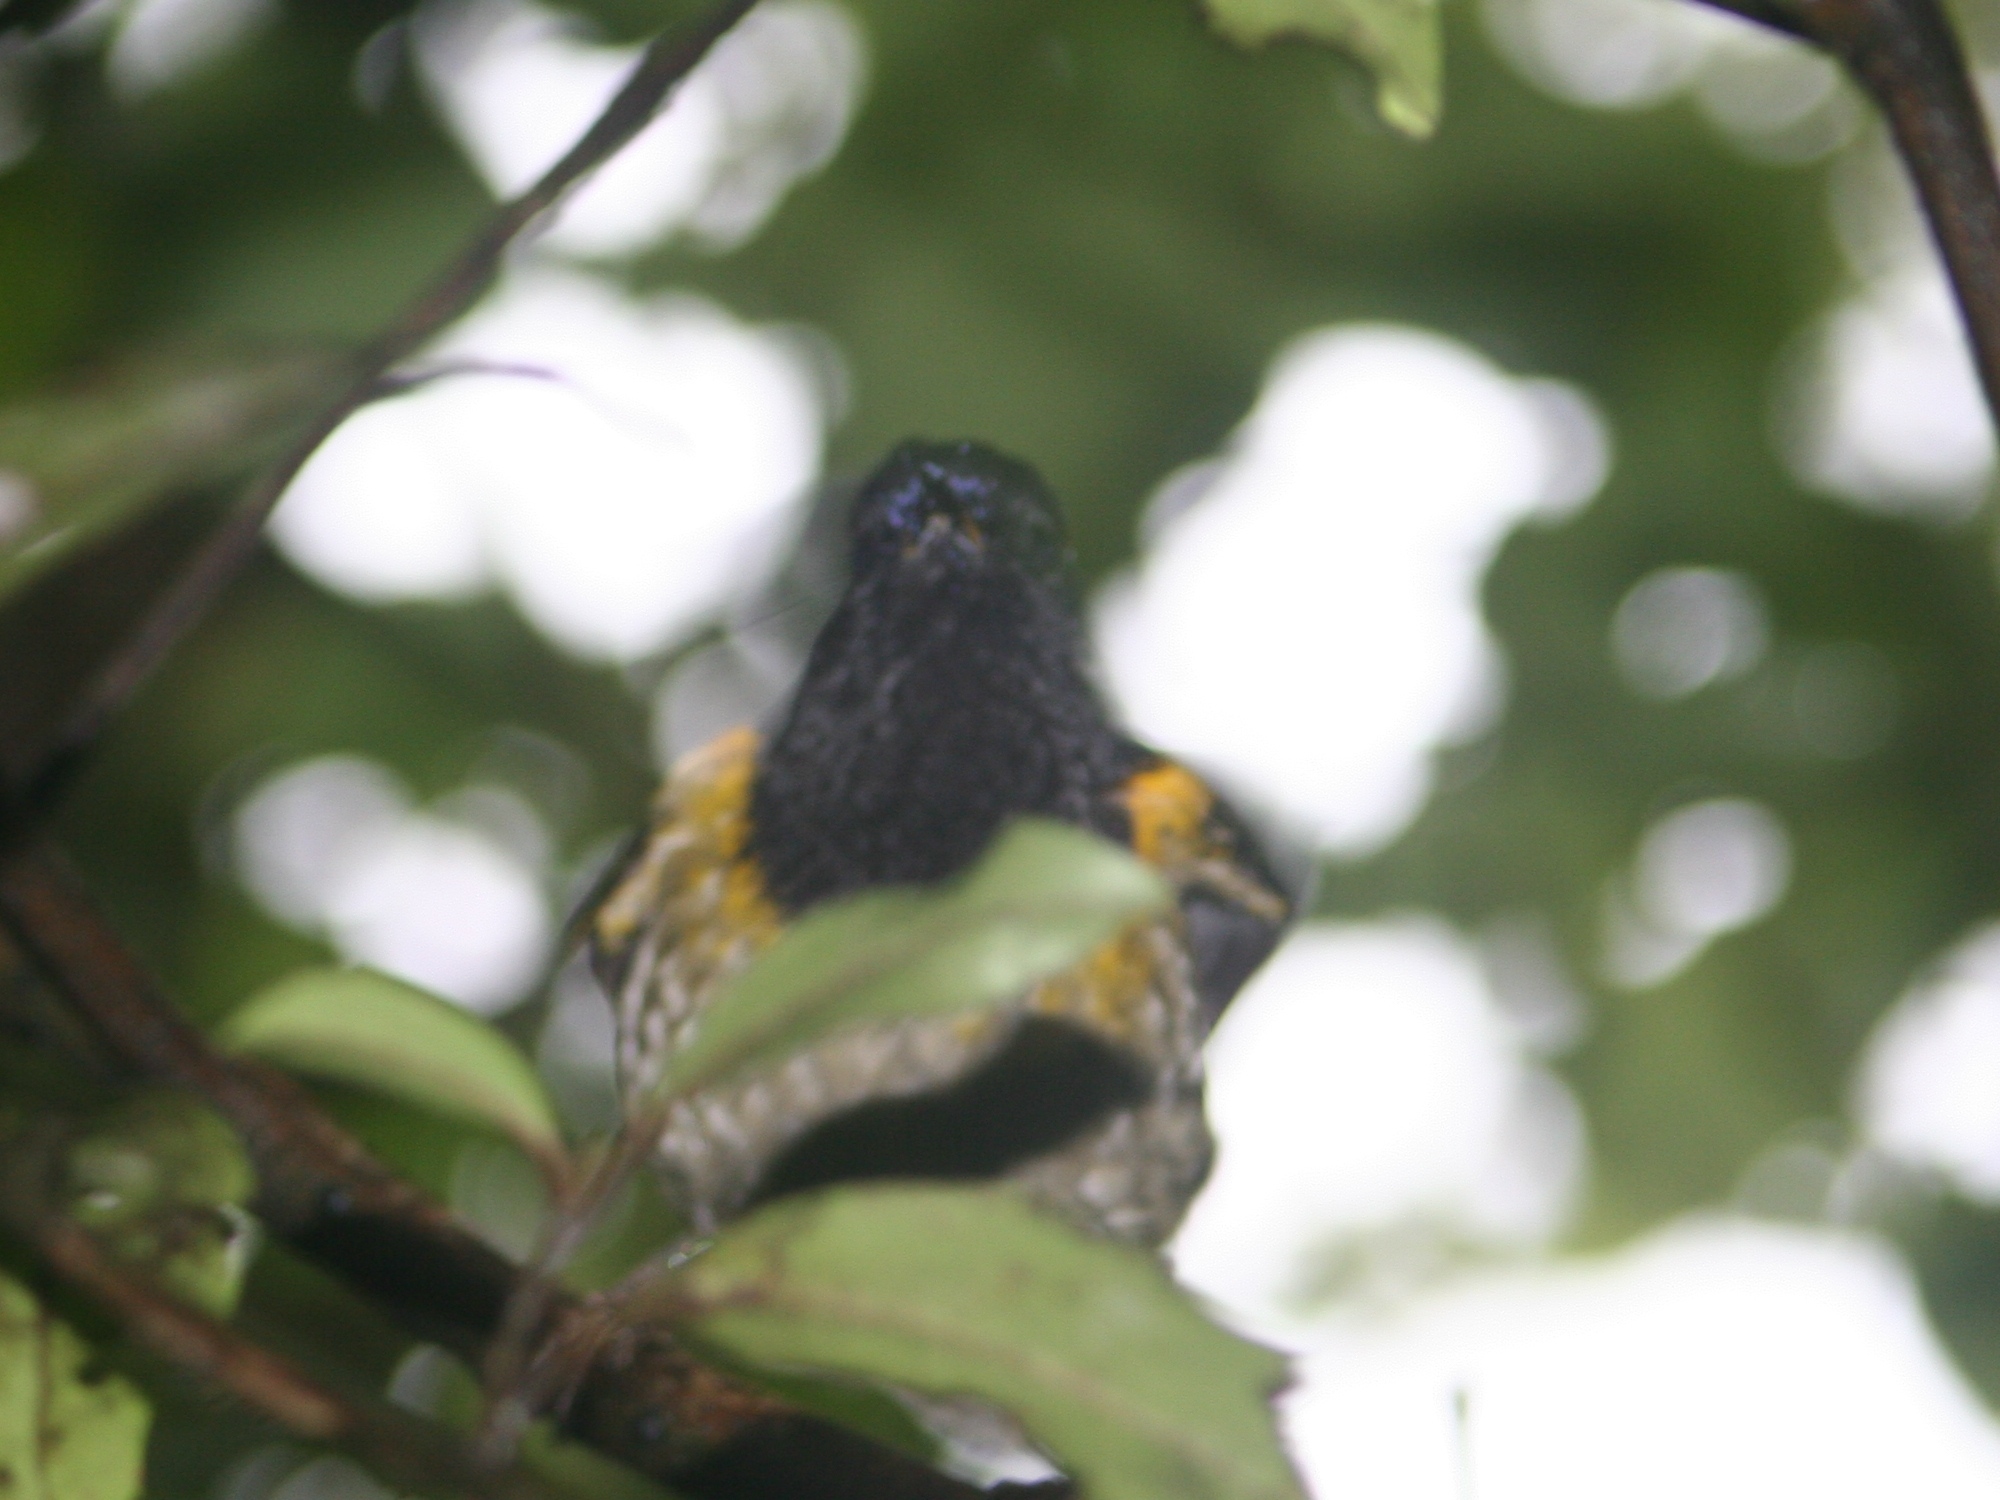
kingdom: Animalia
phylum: Chordata
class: Aves
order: Passeriformes
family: Notiomystidae
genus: Notiomystis
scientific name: Notiomystis cincta
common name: Stitchbird
